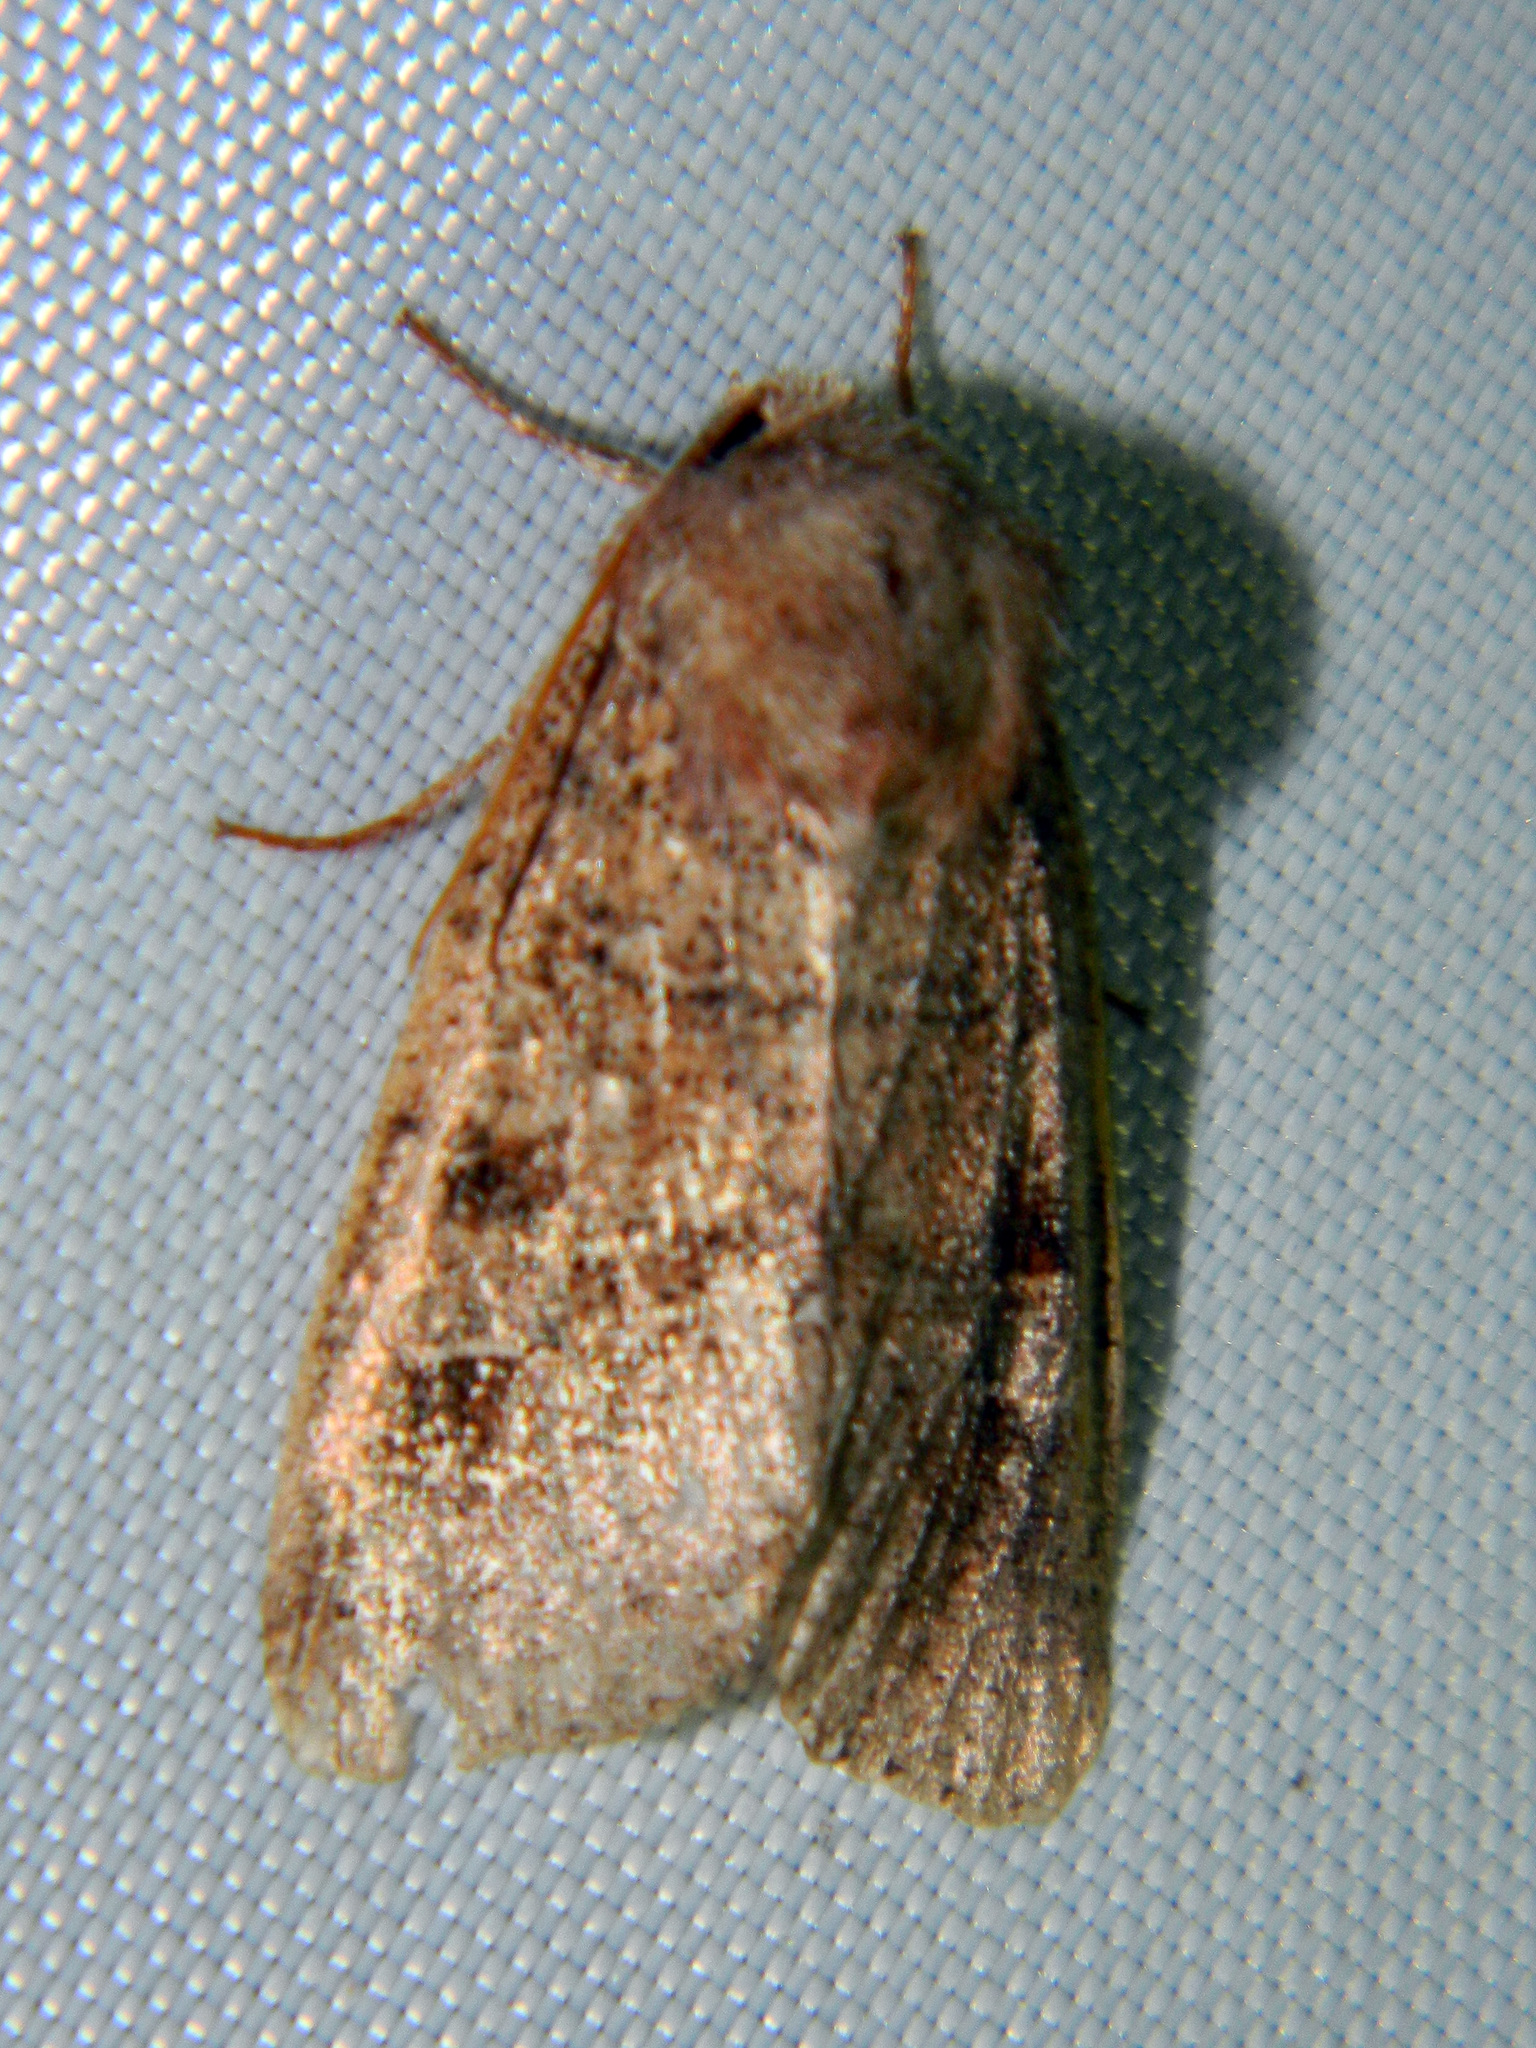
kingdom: Animalia
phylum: Arthropoda
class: Insecta
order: Lepidoptera
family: Noctuidae
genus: Crocigrapha
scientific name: Crocigrapha normani
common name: Norman's quaker
